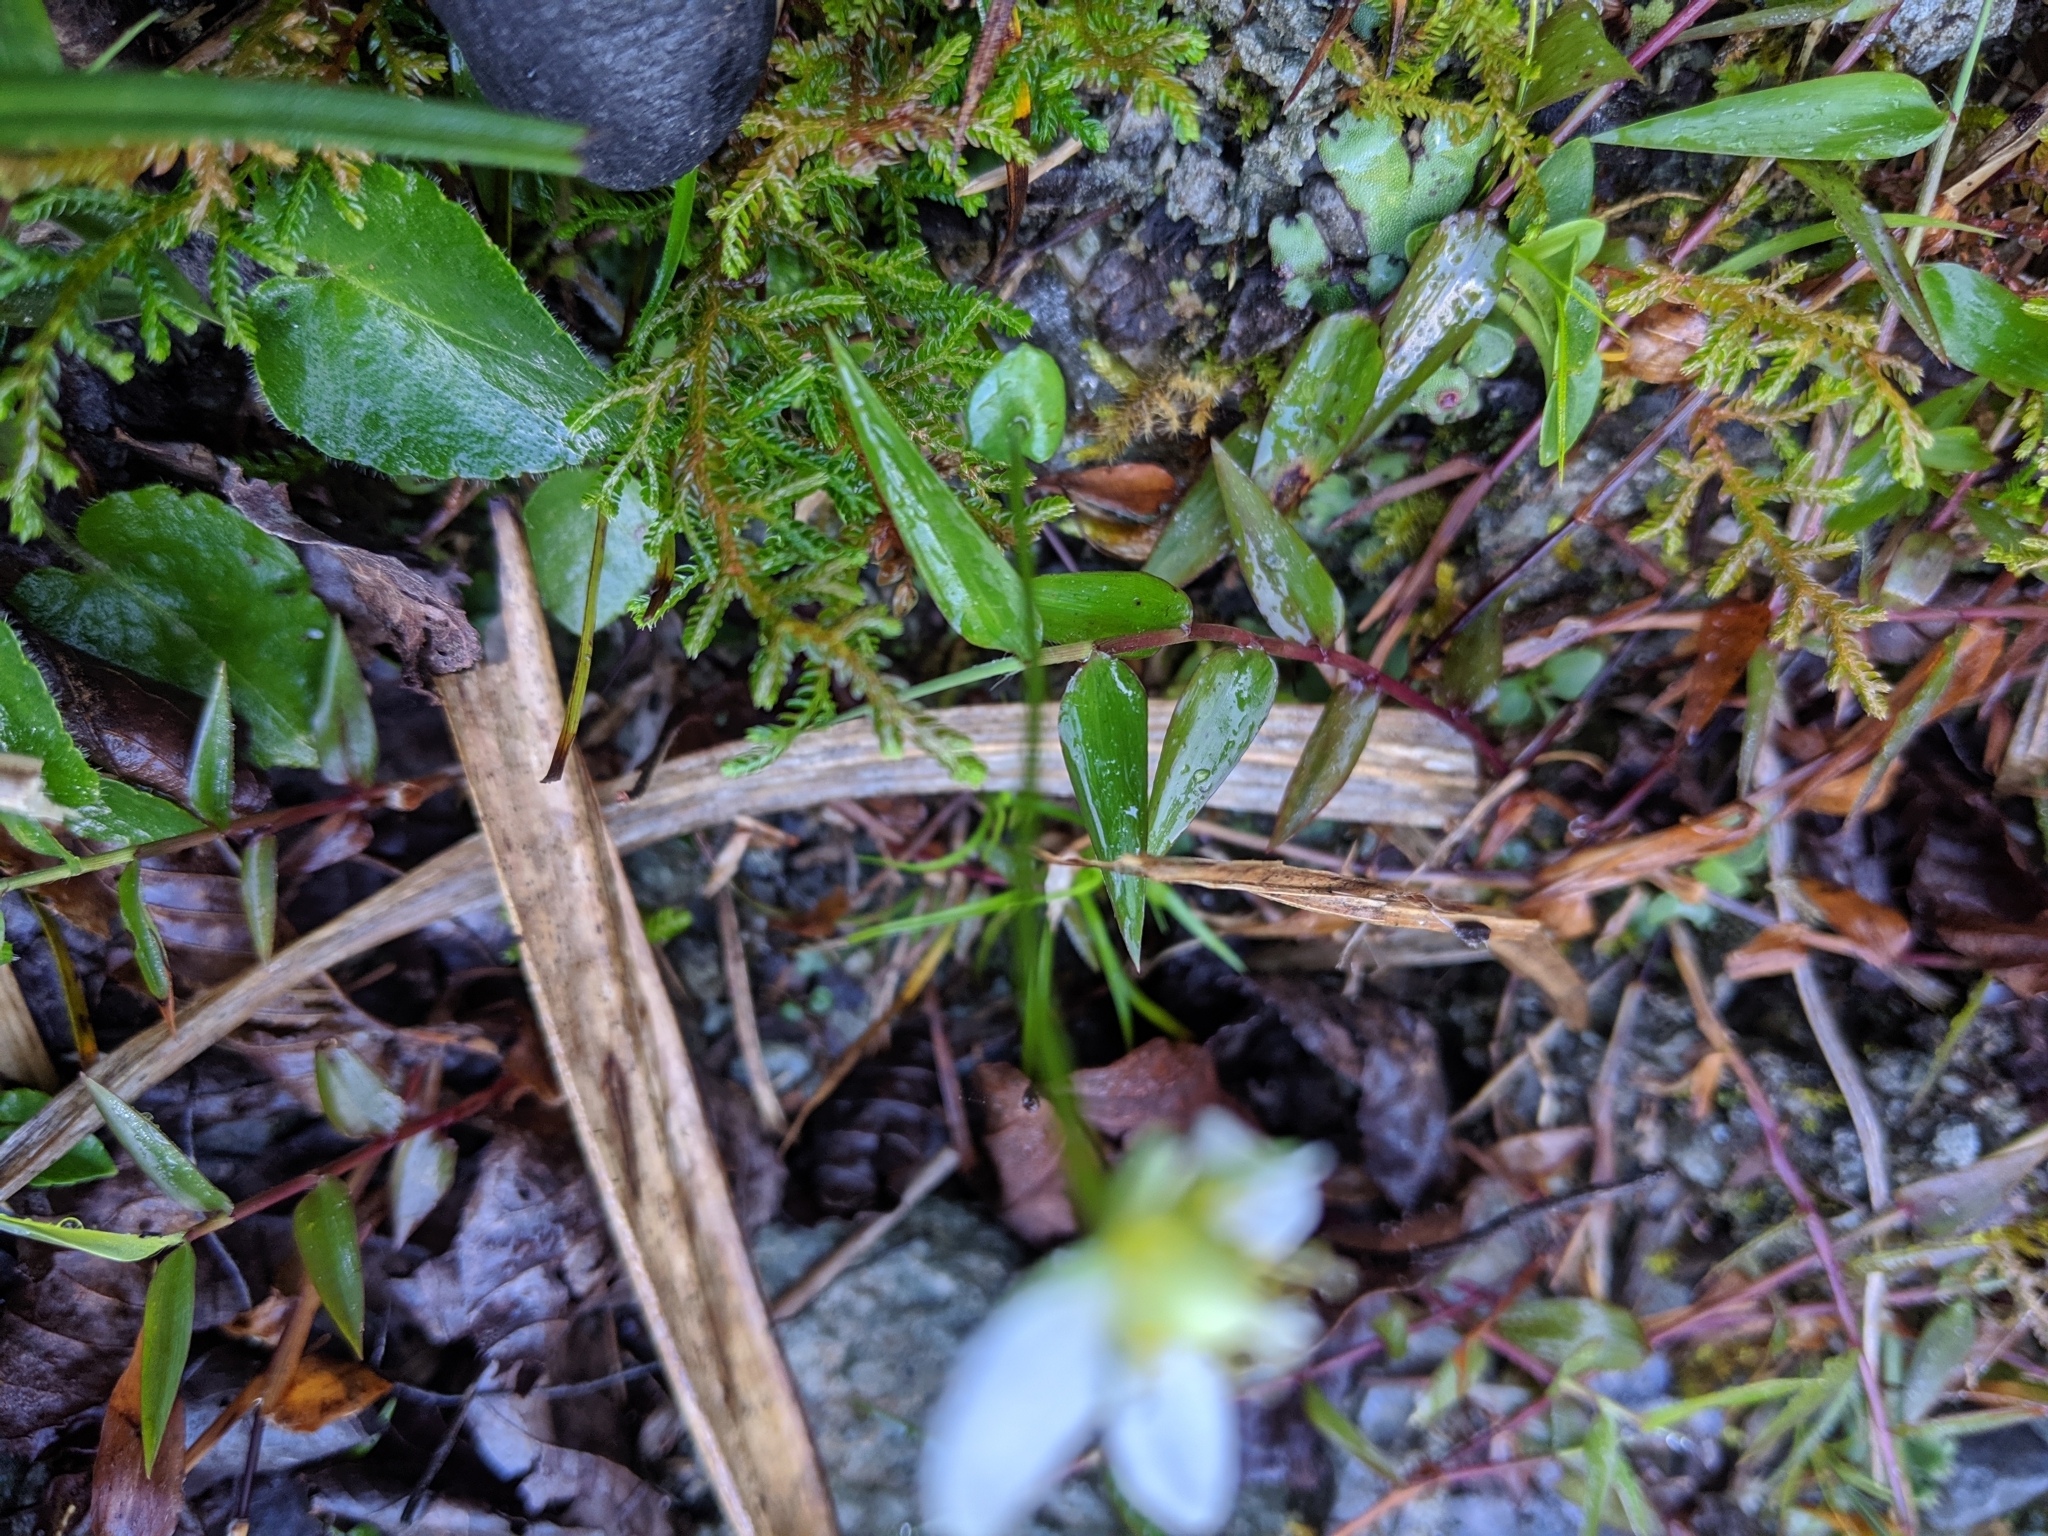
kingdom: Plantae
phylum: Tracheophyta
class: Magnoliopsida
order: Celastrales
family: Parnassiaceae
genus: Parnassia
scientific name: Parnassia palustris
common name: Grass-of-parnassus
